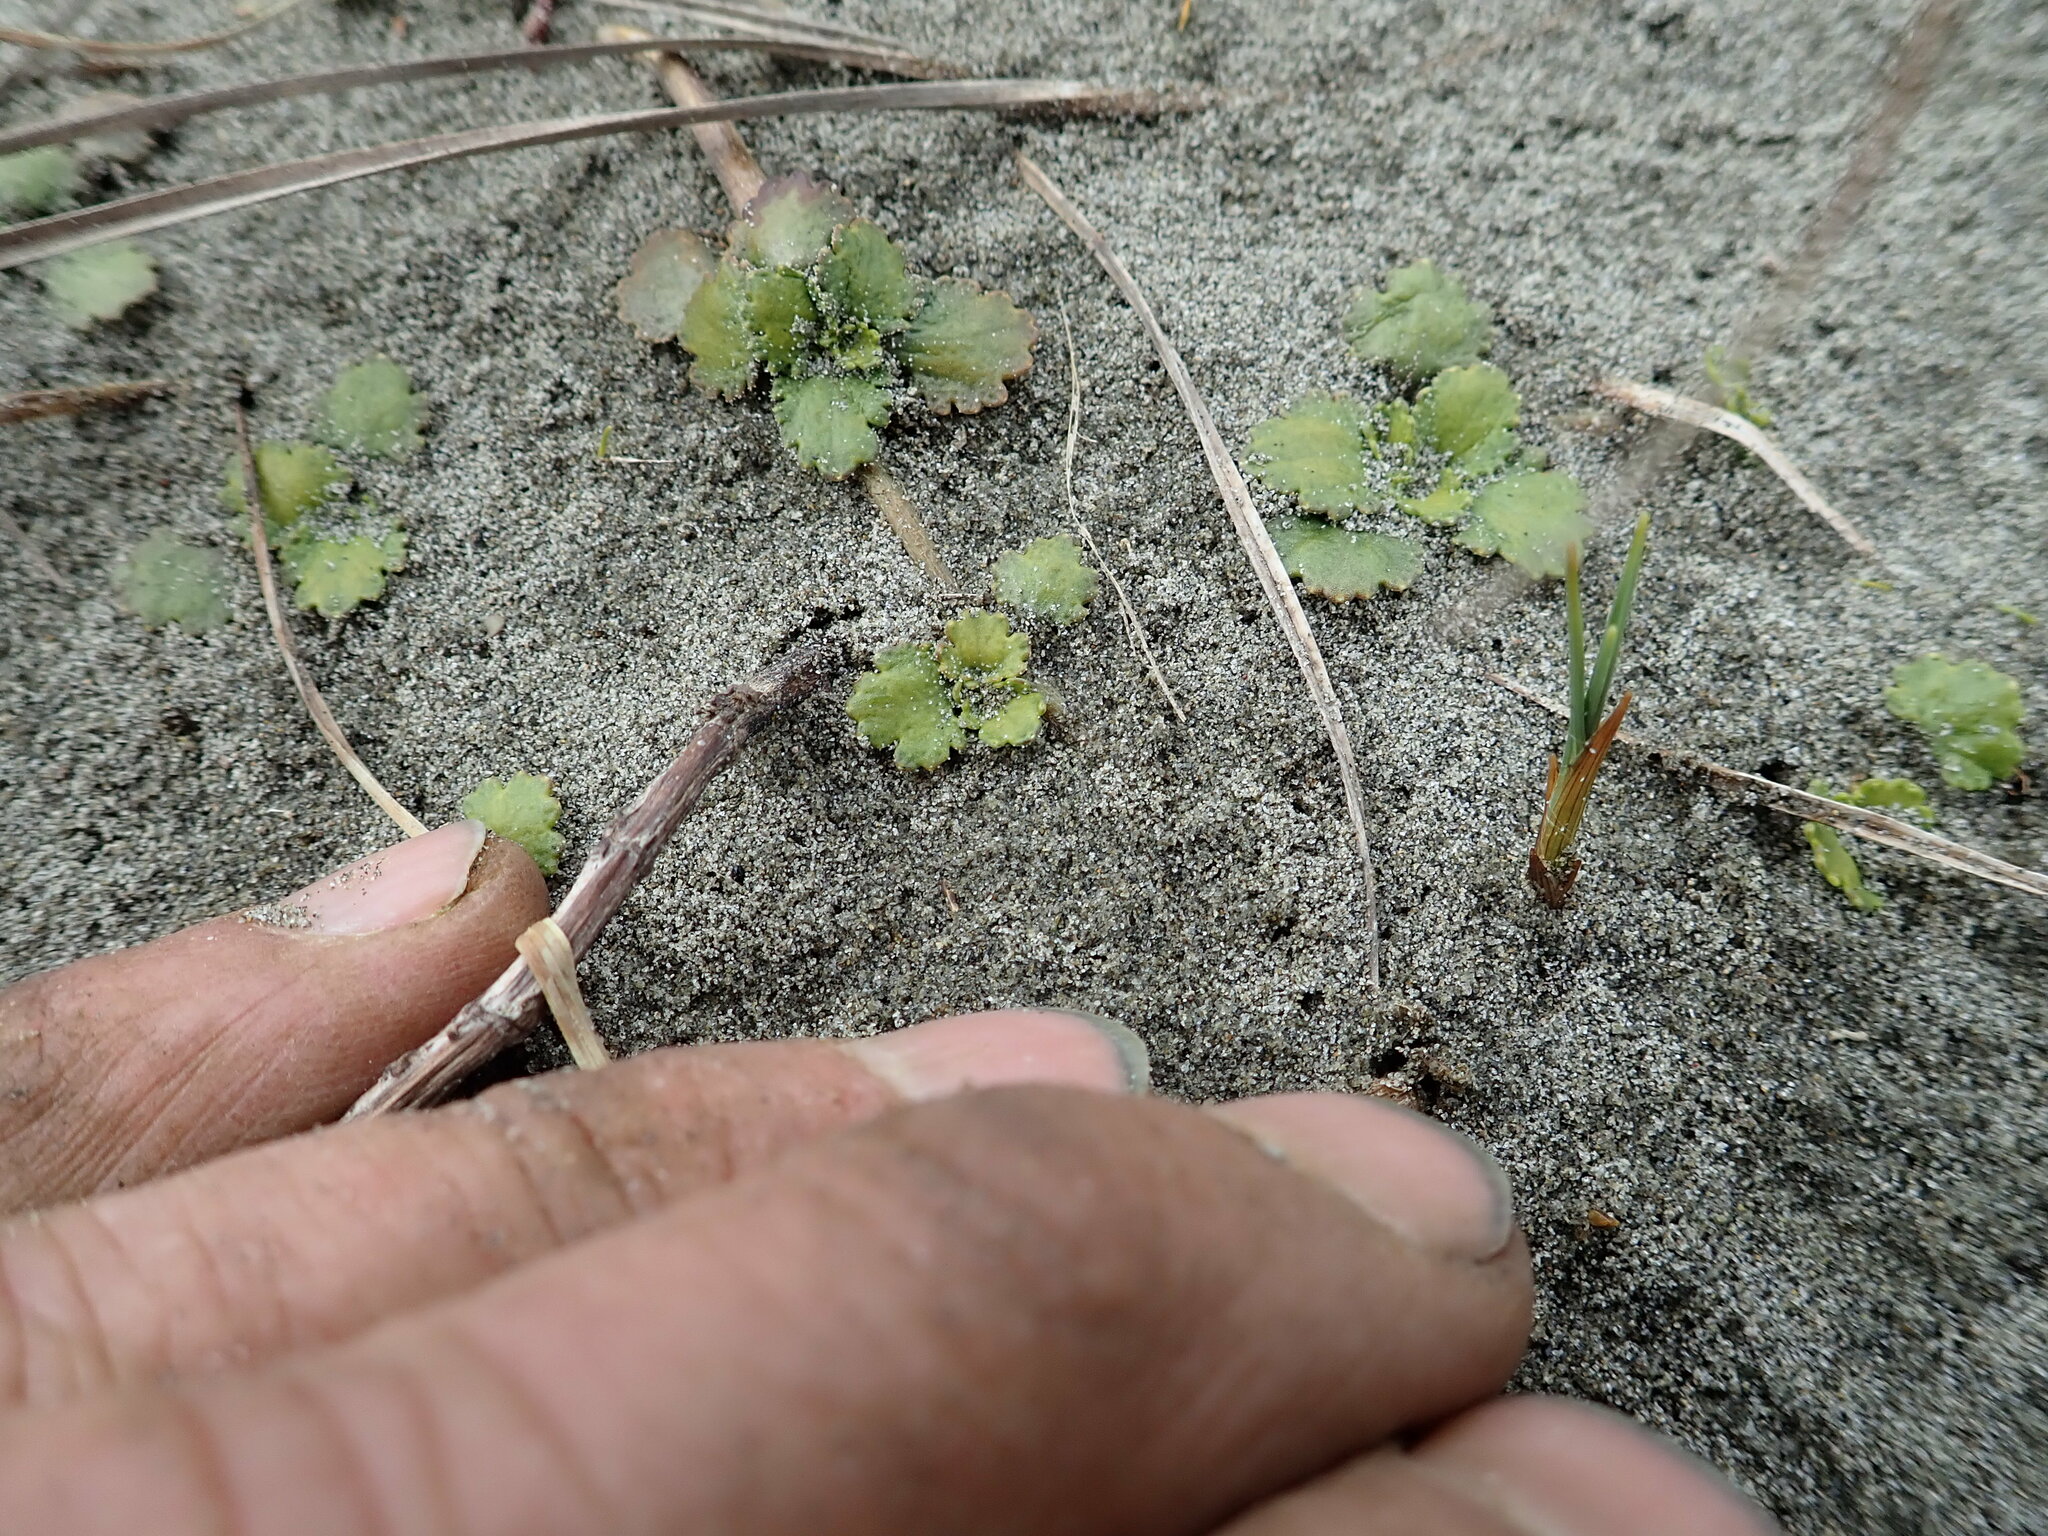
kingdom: Plantae
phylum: Tracheophyta
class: Magnoliopsida
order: Gunnerales
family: Gunneraceae
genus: Gunnera
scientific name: Gunnera dentata
